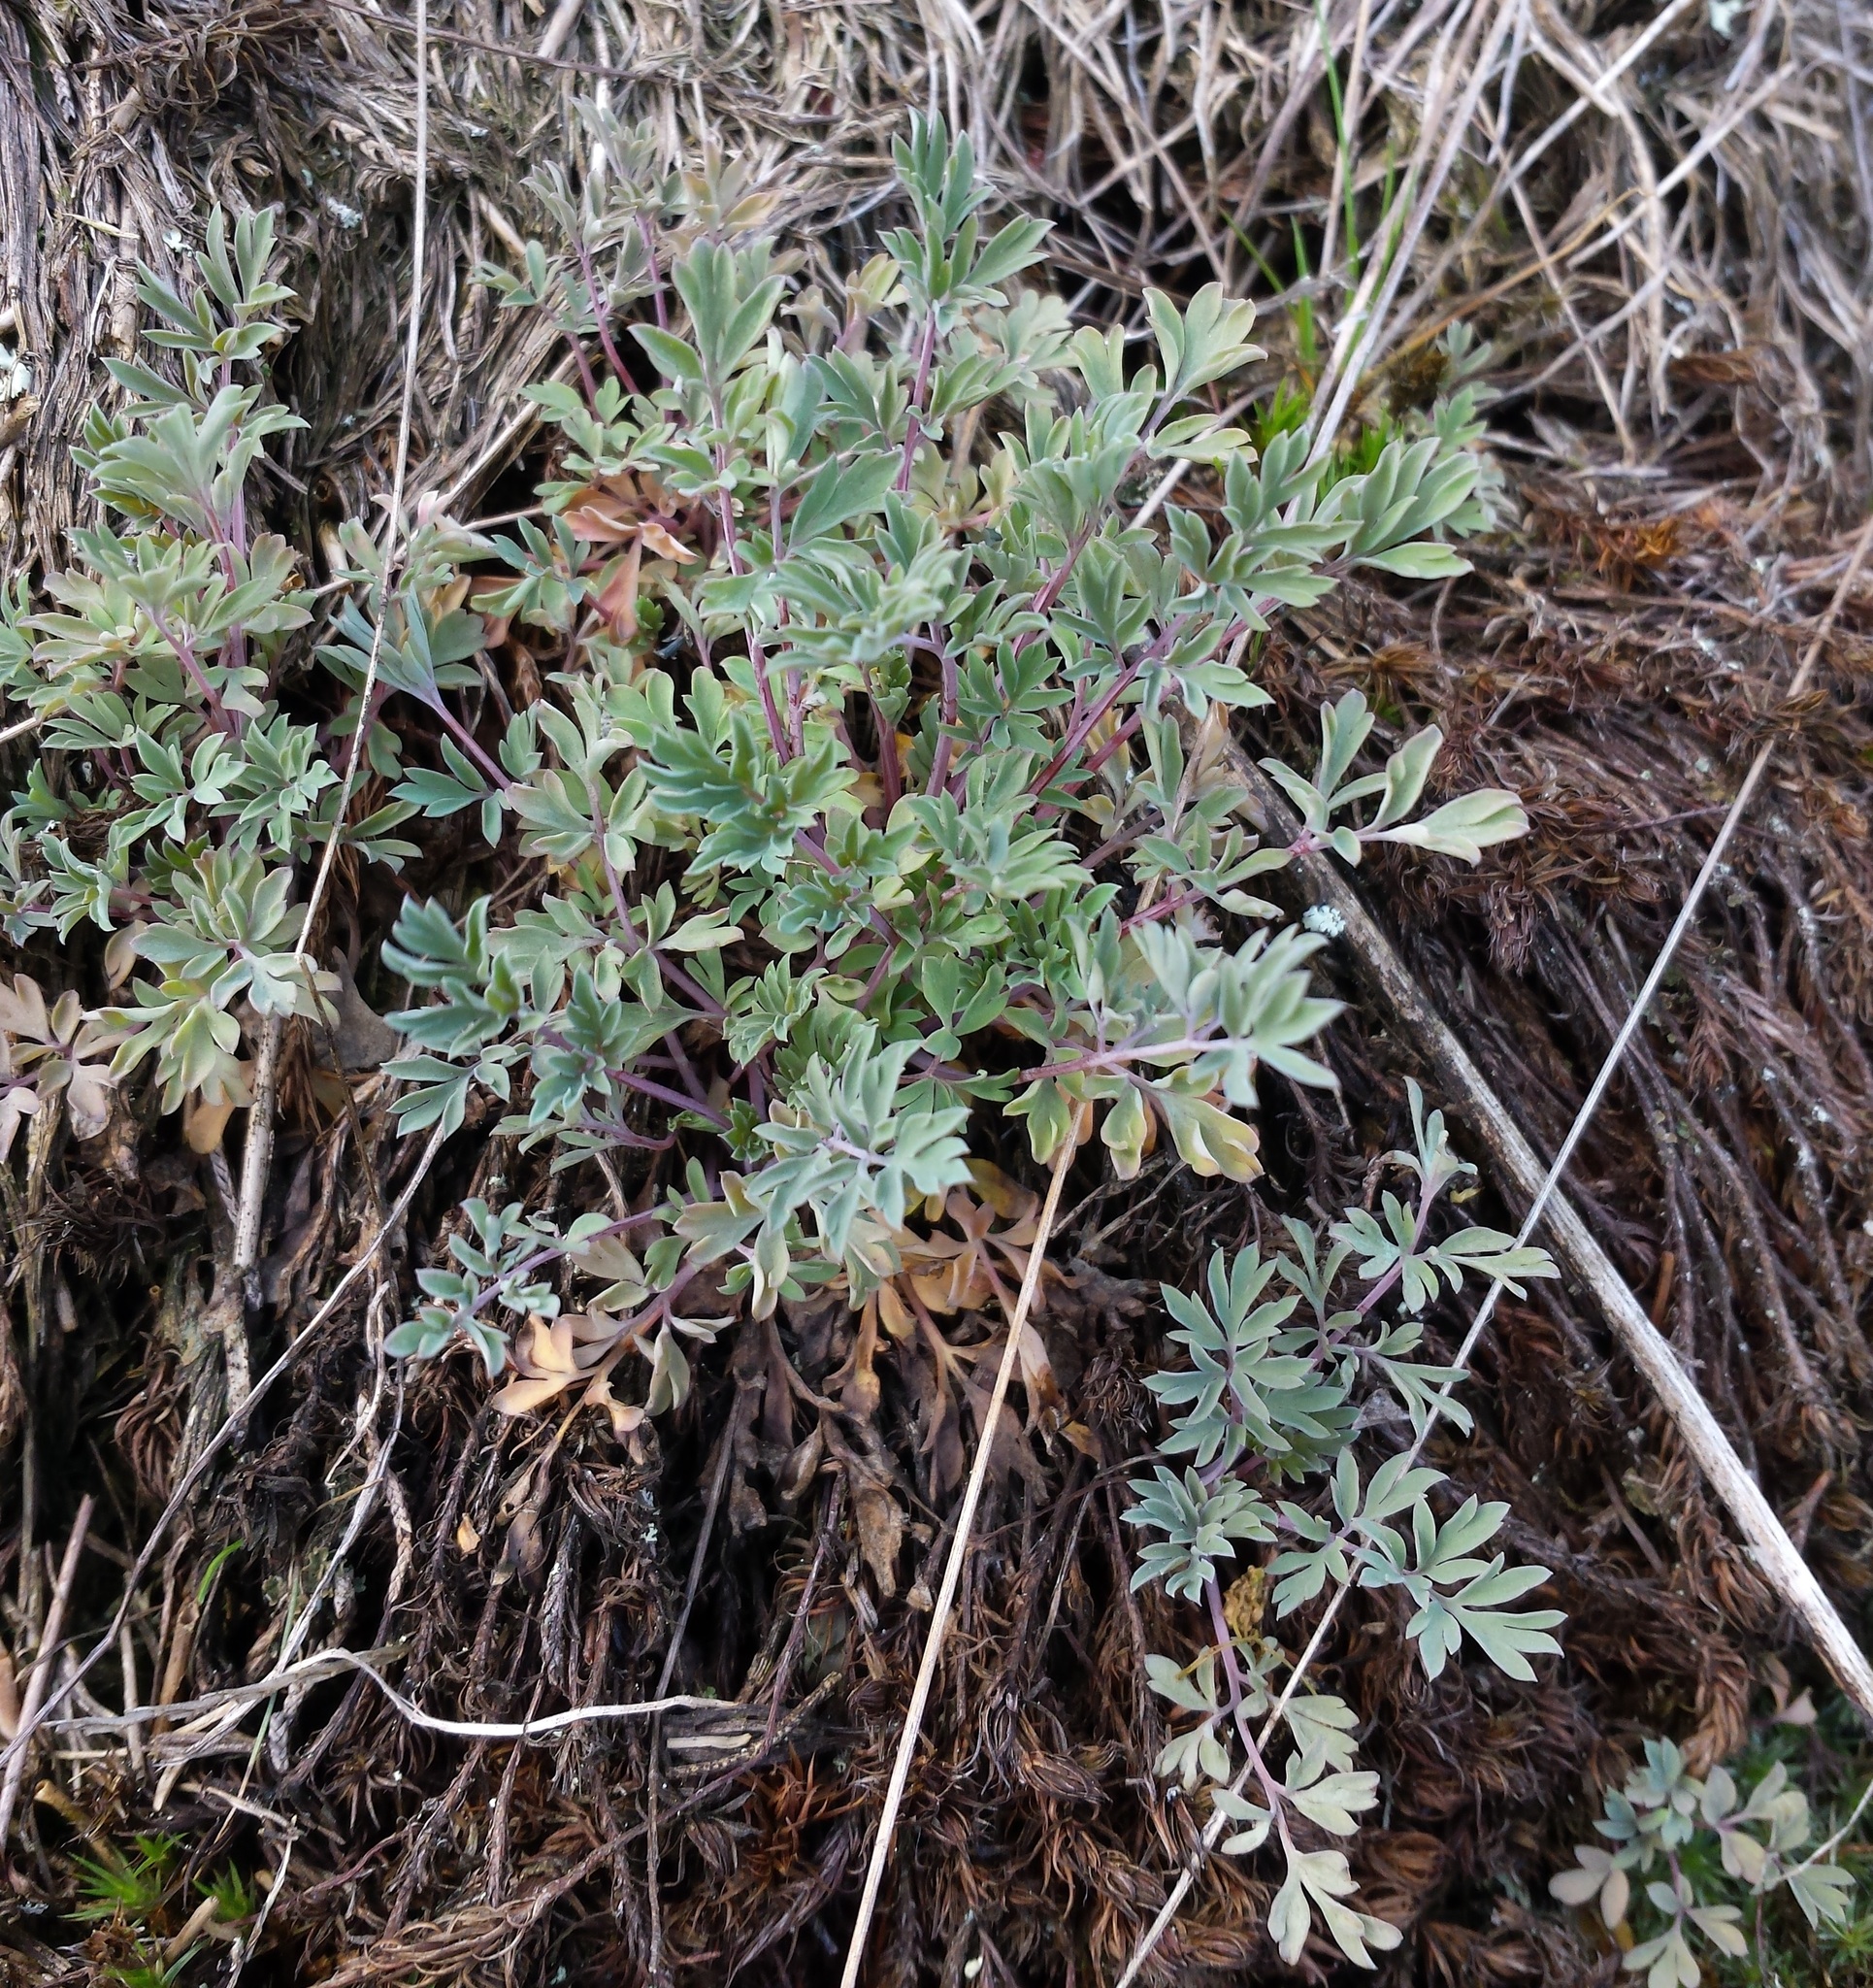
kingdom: Plantae
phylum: Tracheophyta
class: Magnoliopsida
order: Ranunculales
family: Papaveraceae
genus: Capnoides
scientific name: Capnoides sempervirens
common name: Rock harlequin
